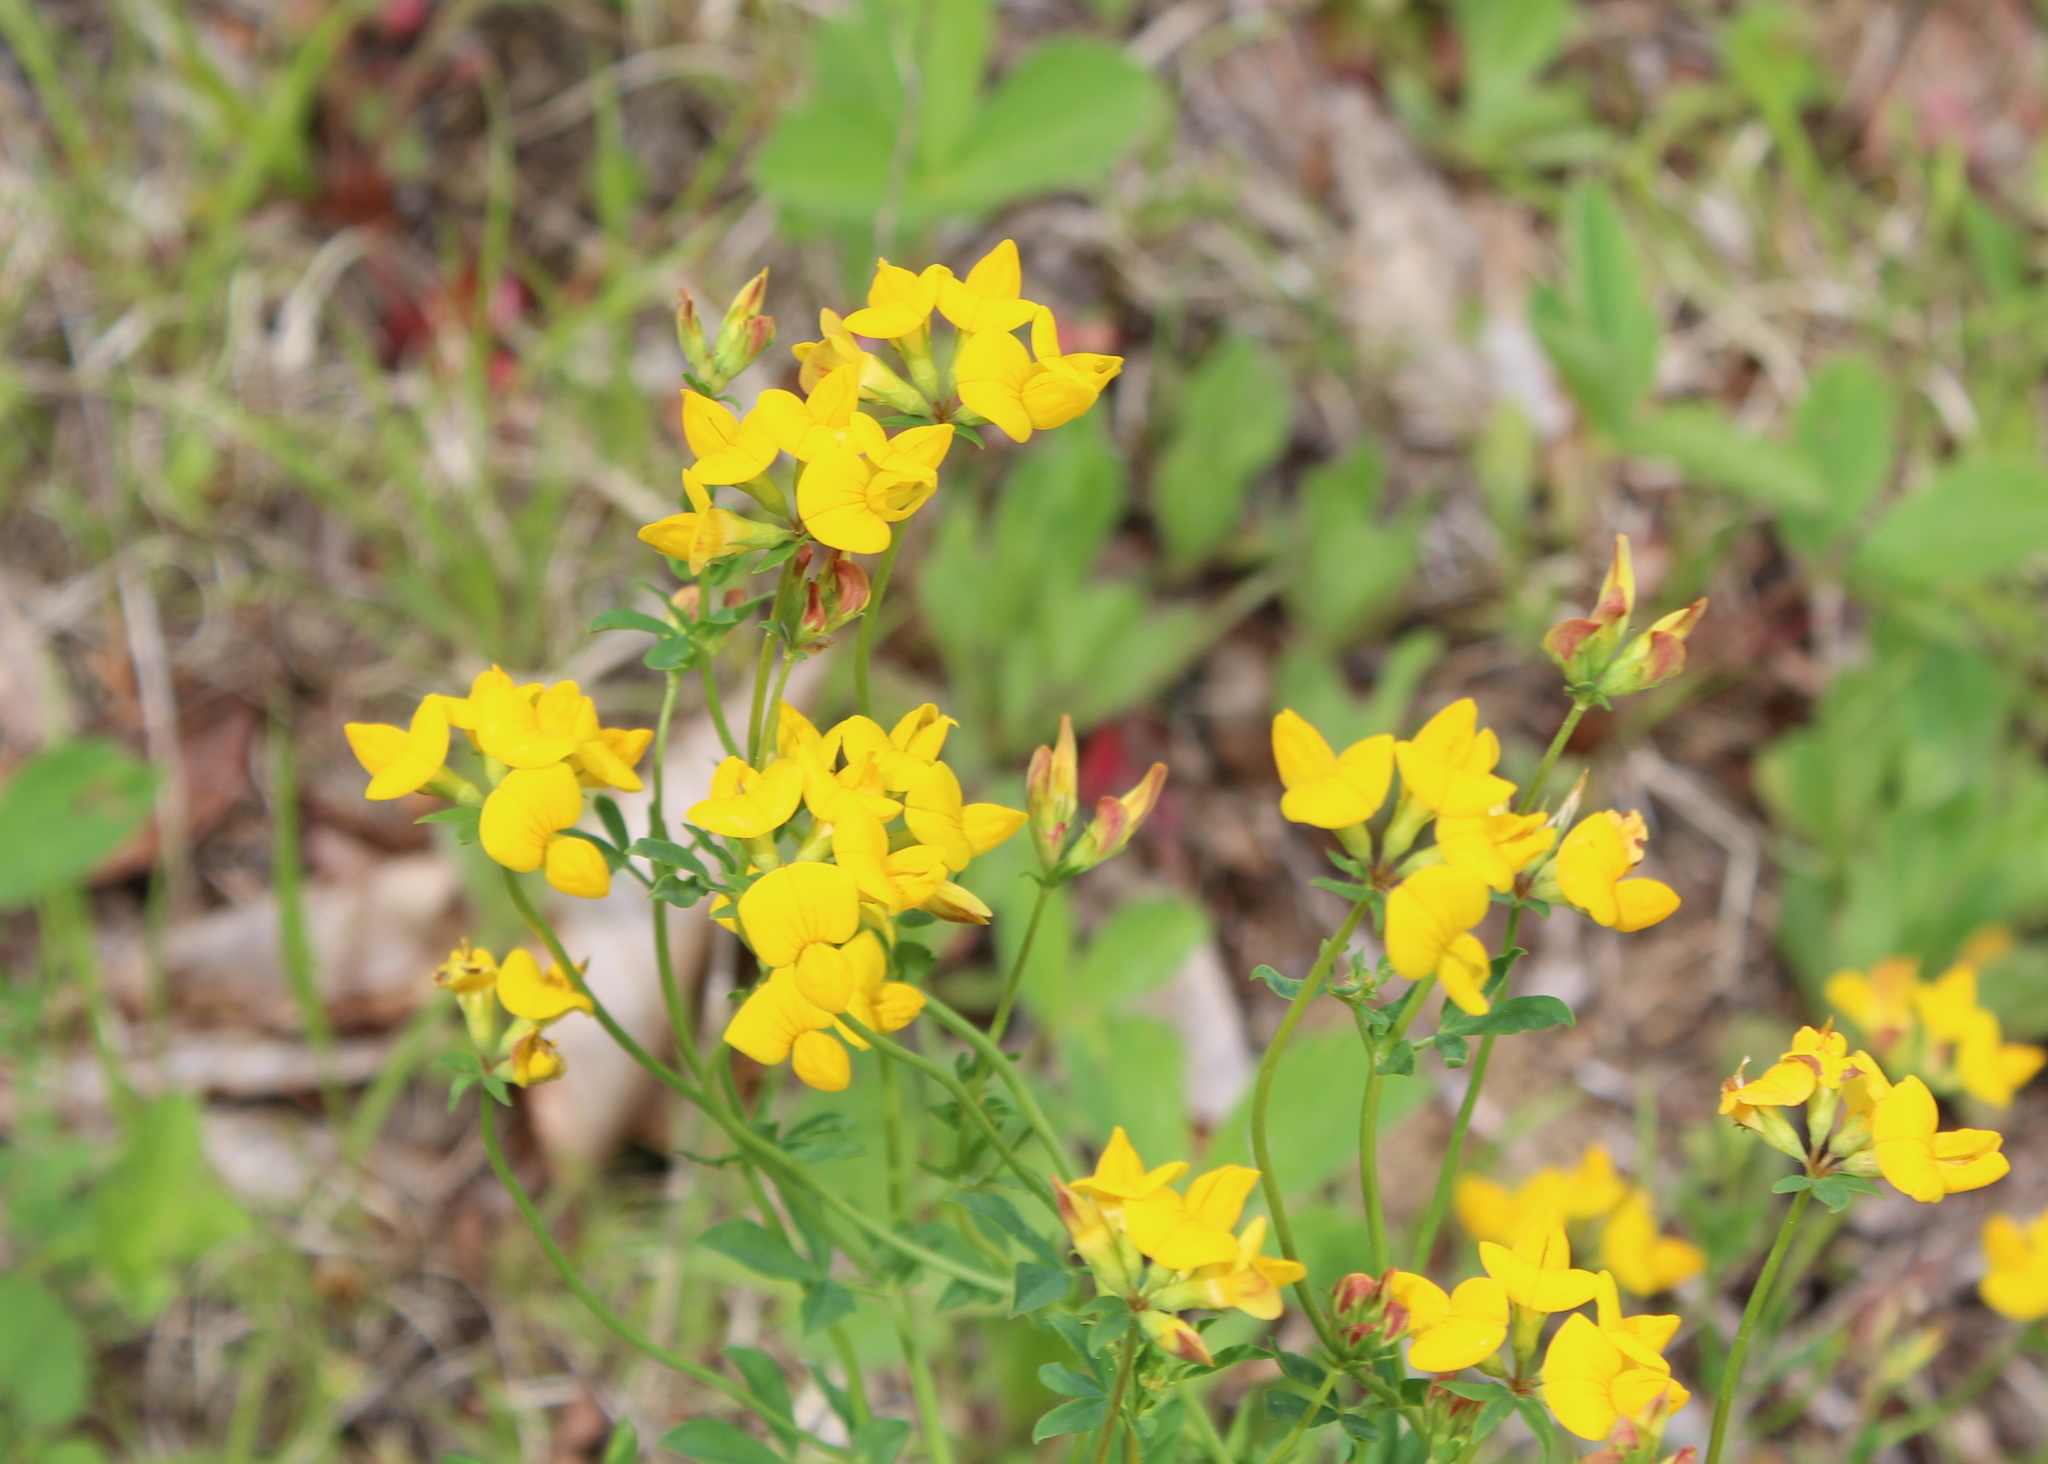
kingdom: Plantae
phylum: Tracheophyta
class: Magnoliopsida
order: Fabales
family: Fabaceae
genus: Lotus
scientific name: Lotus corniculatus
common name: Common bird's-foot-trefoil
